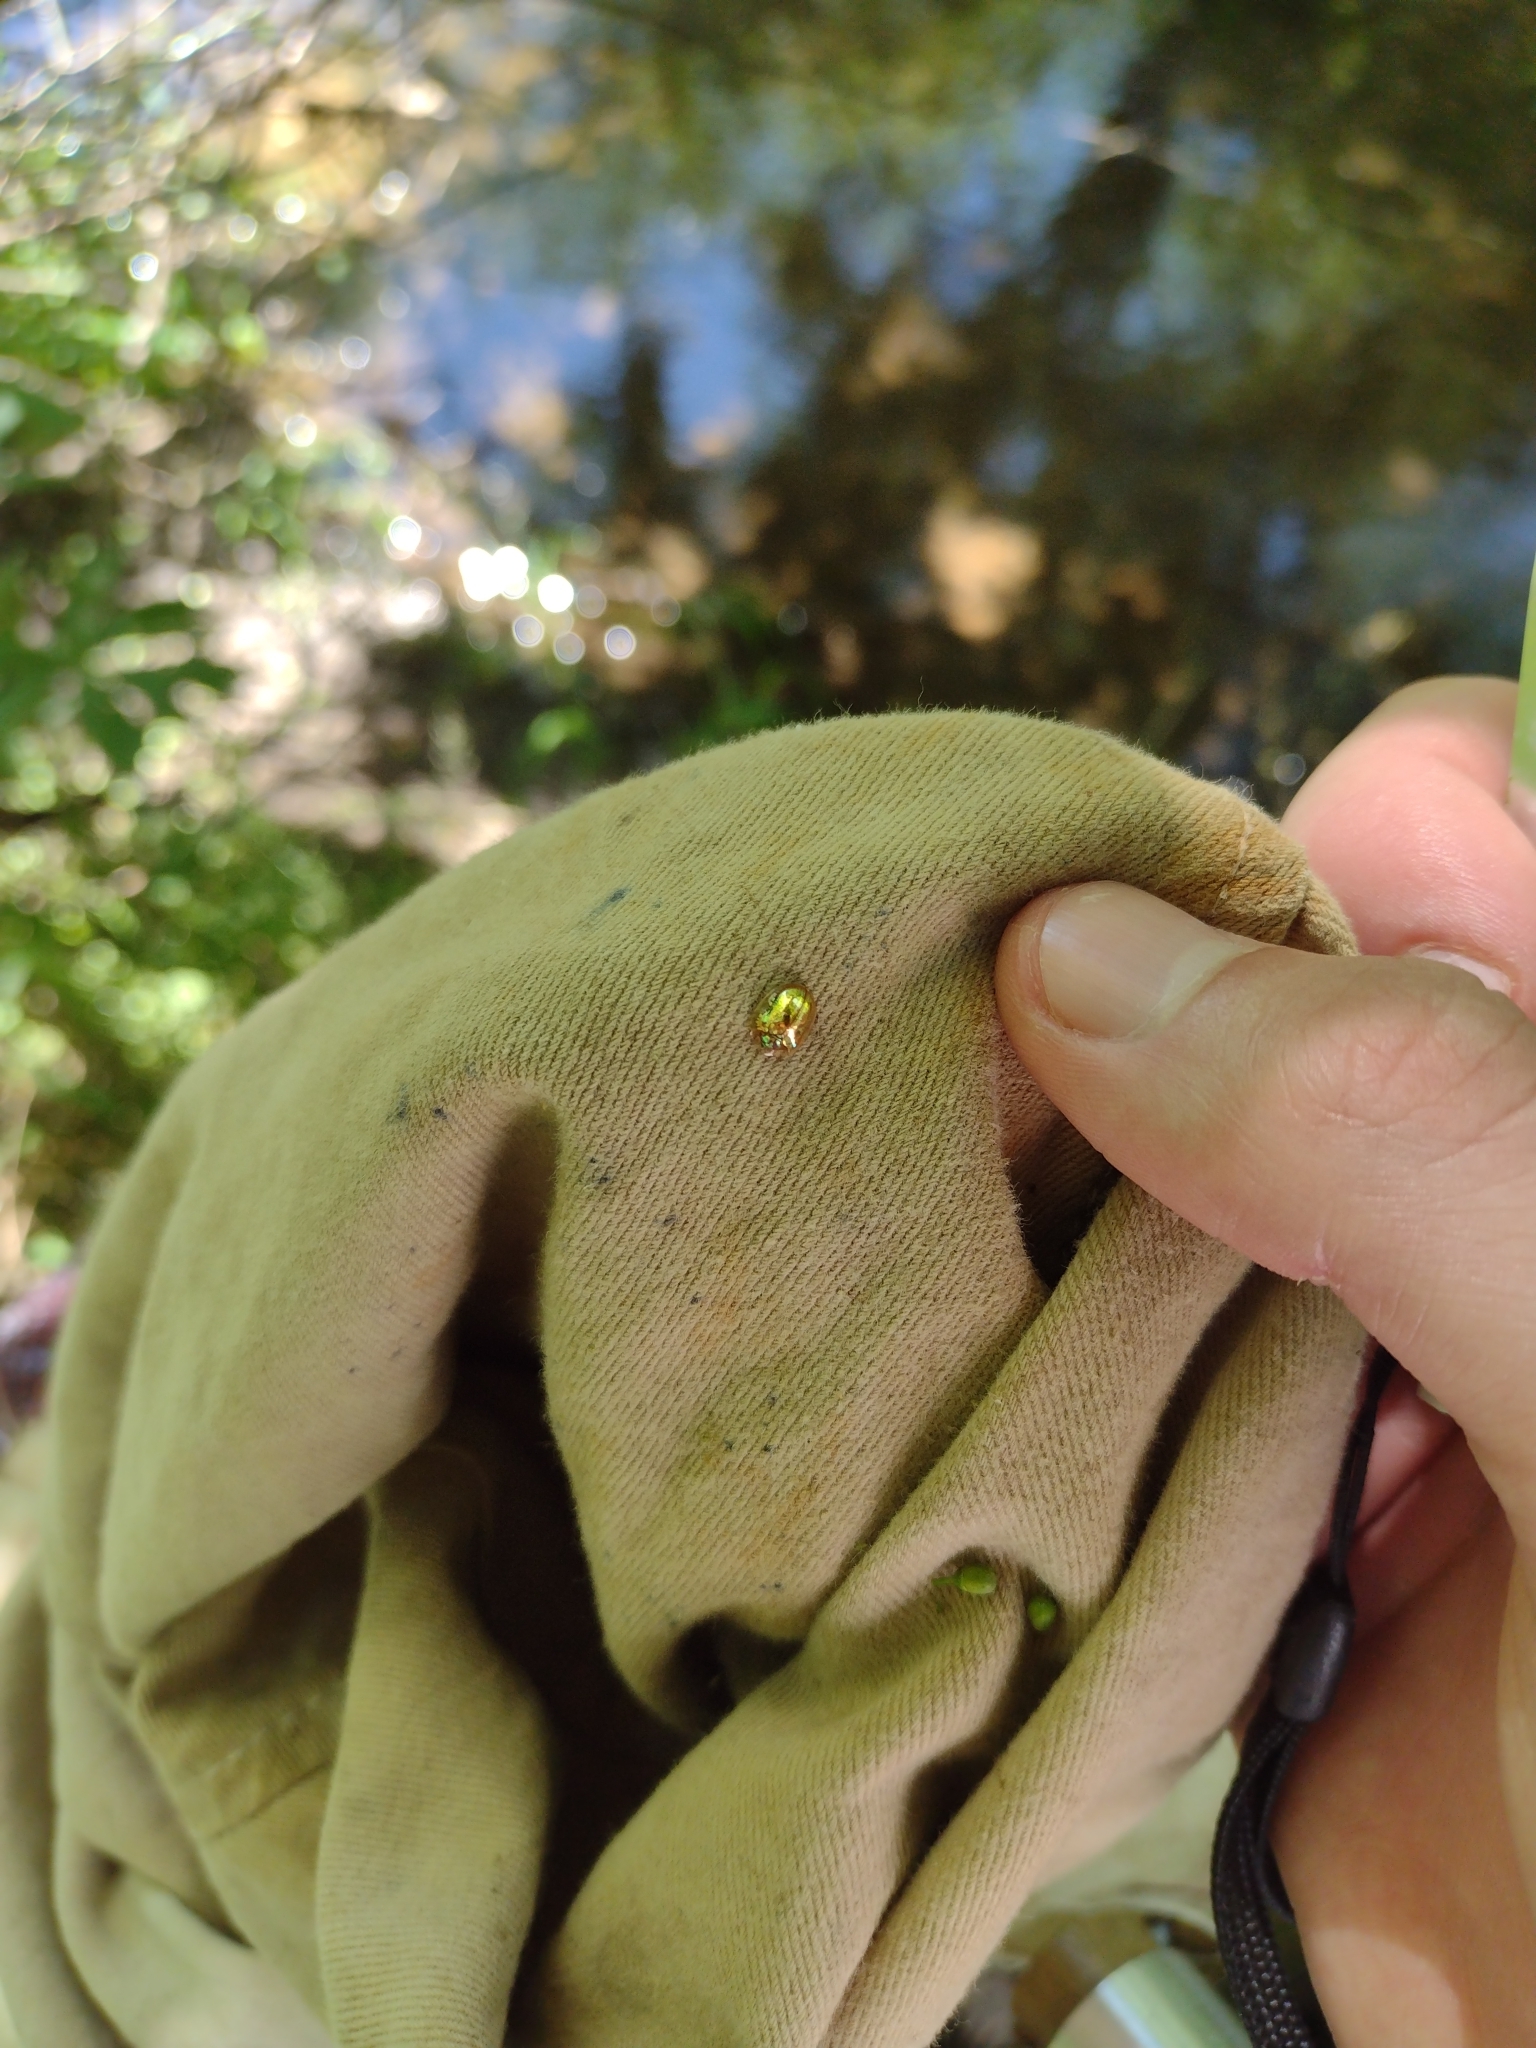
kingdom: Animalia
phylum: Arthropoda
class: Insecta
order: Coleoptera
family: Chrysomelidae
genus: Charidotella
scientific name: Charidotella sexpunctata
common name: Golden tortoise beetle
